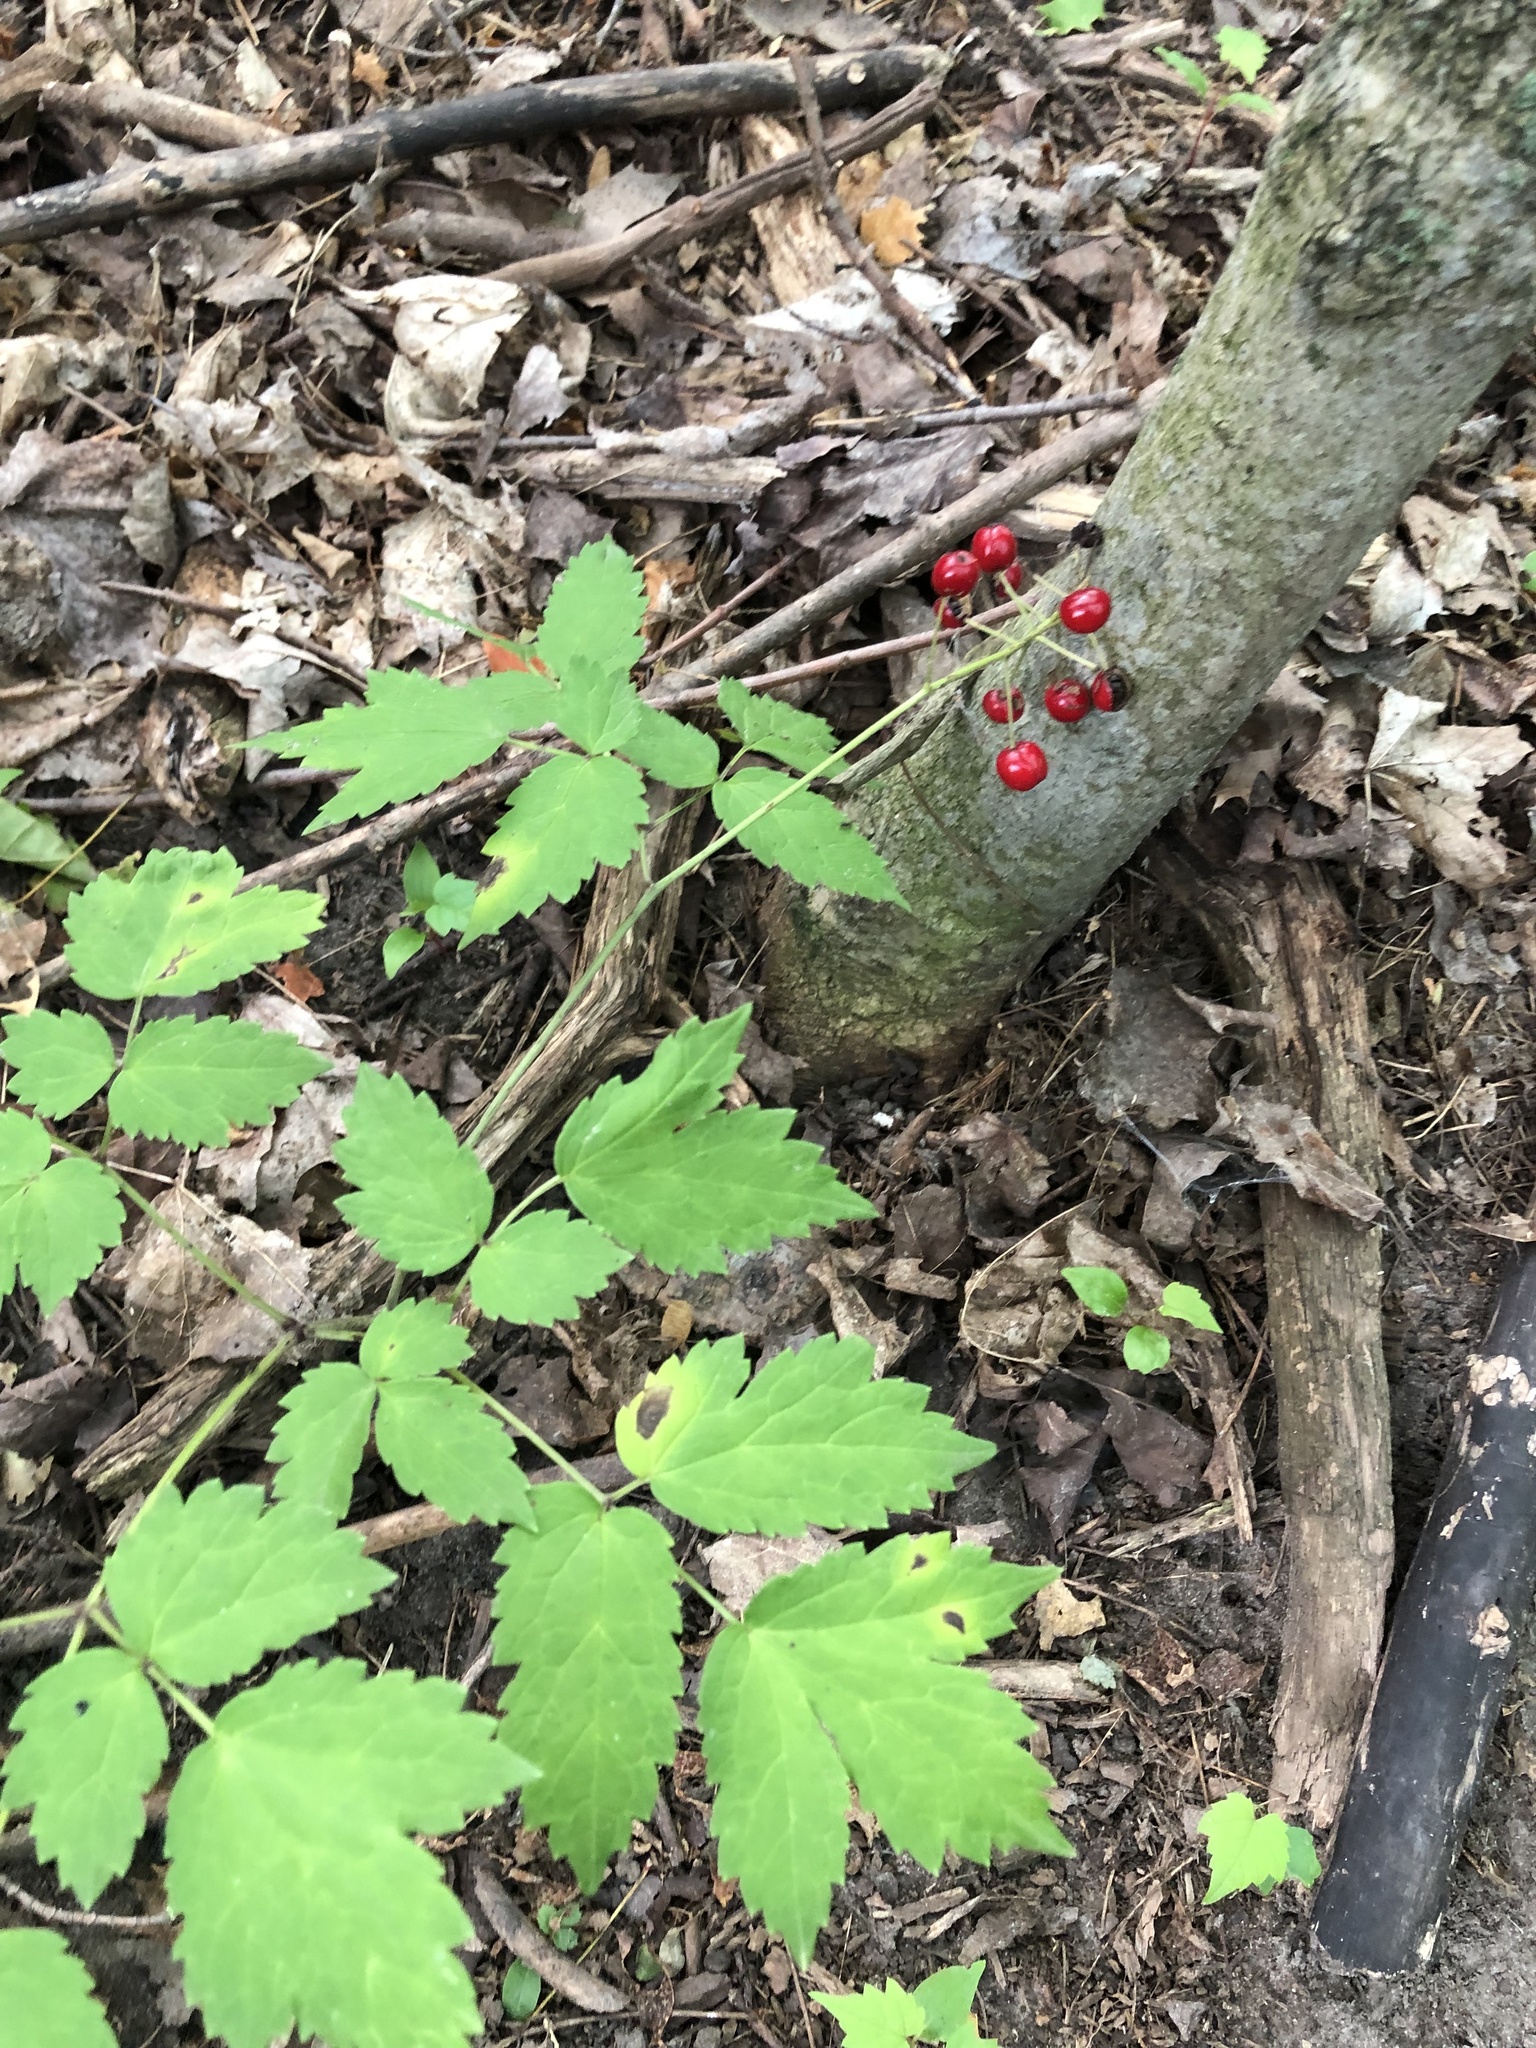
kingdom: Plantae
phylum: Tracheophyta
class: Magnoliopsida
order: Ranunculales
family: Ranunculaceae
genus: Actaea
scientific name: Actaea rubra
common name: Red baneberry
